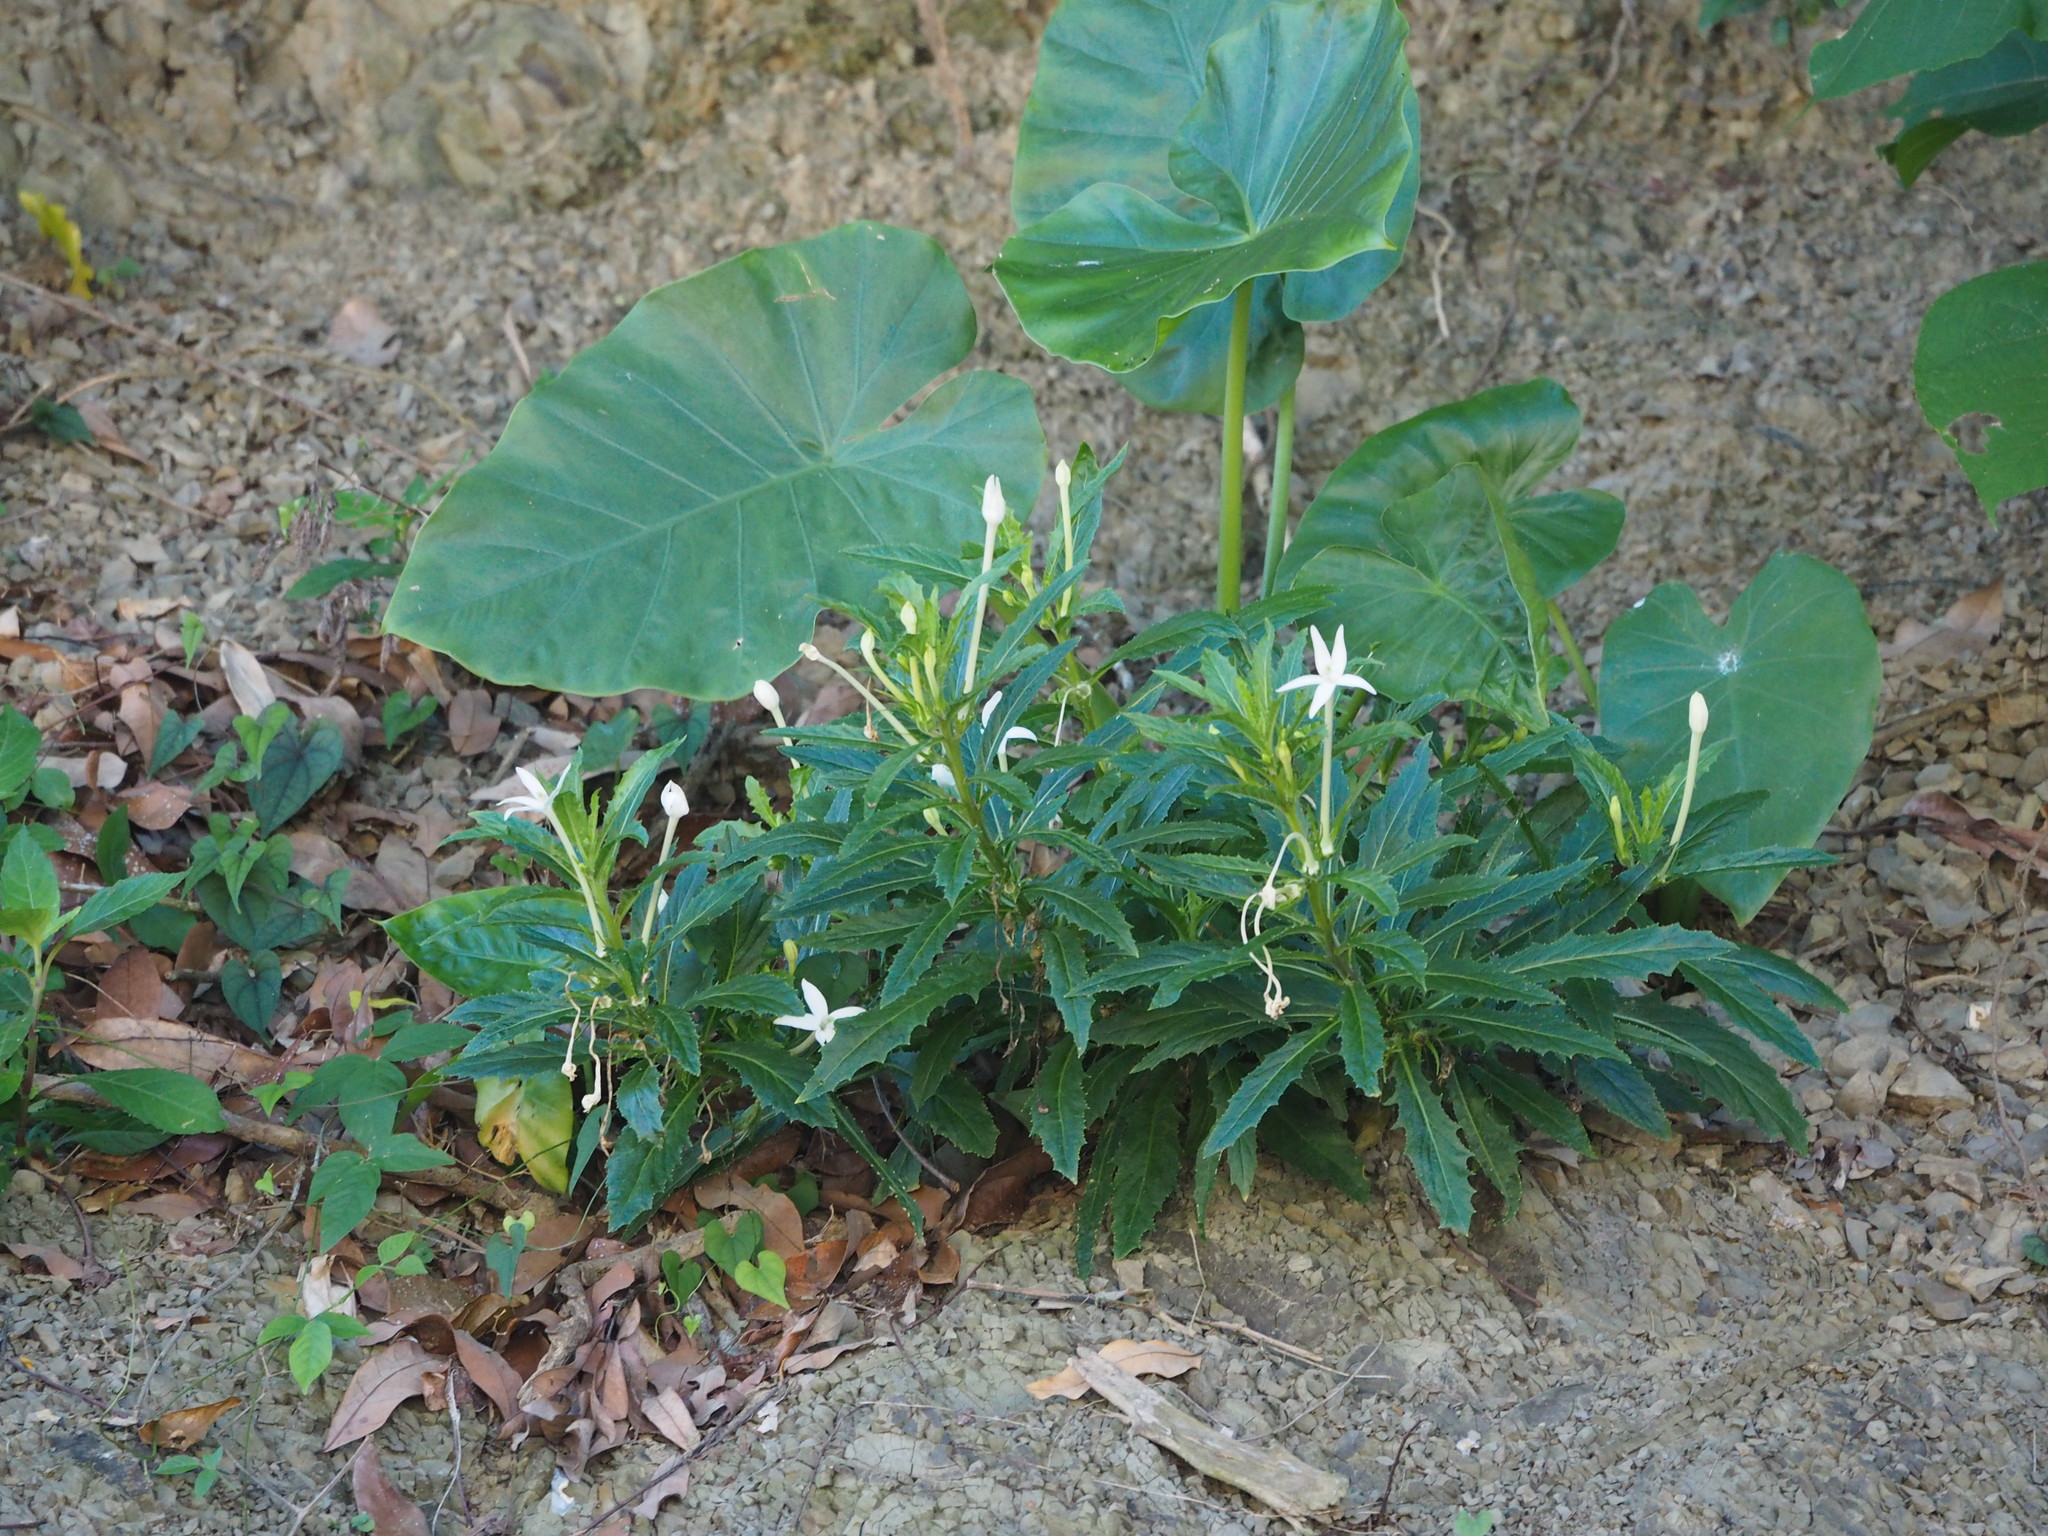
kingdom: Plantae
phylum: Tracheophyta
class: Magnoliopsida
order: Asterales
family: Campanulaceae
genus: Hippobroma
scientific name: Hippobroma longiflora
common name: Madamfate
